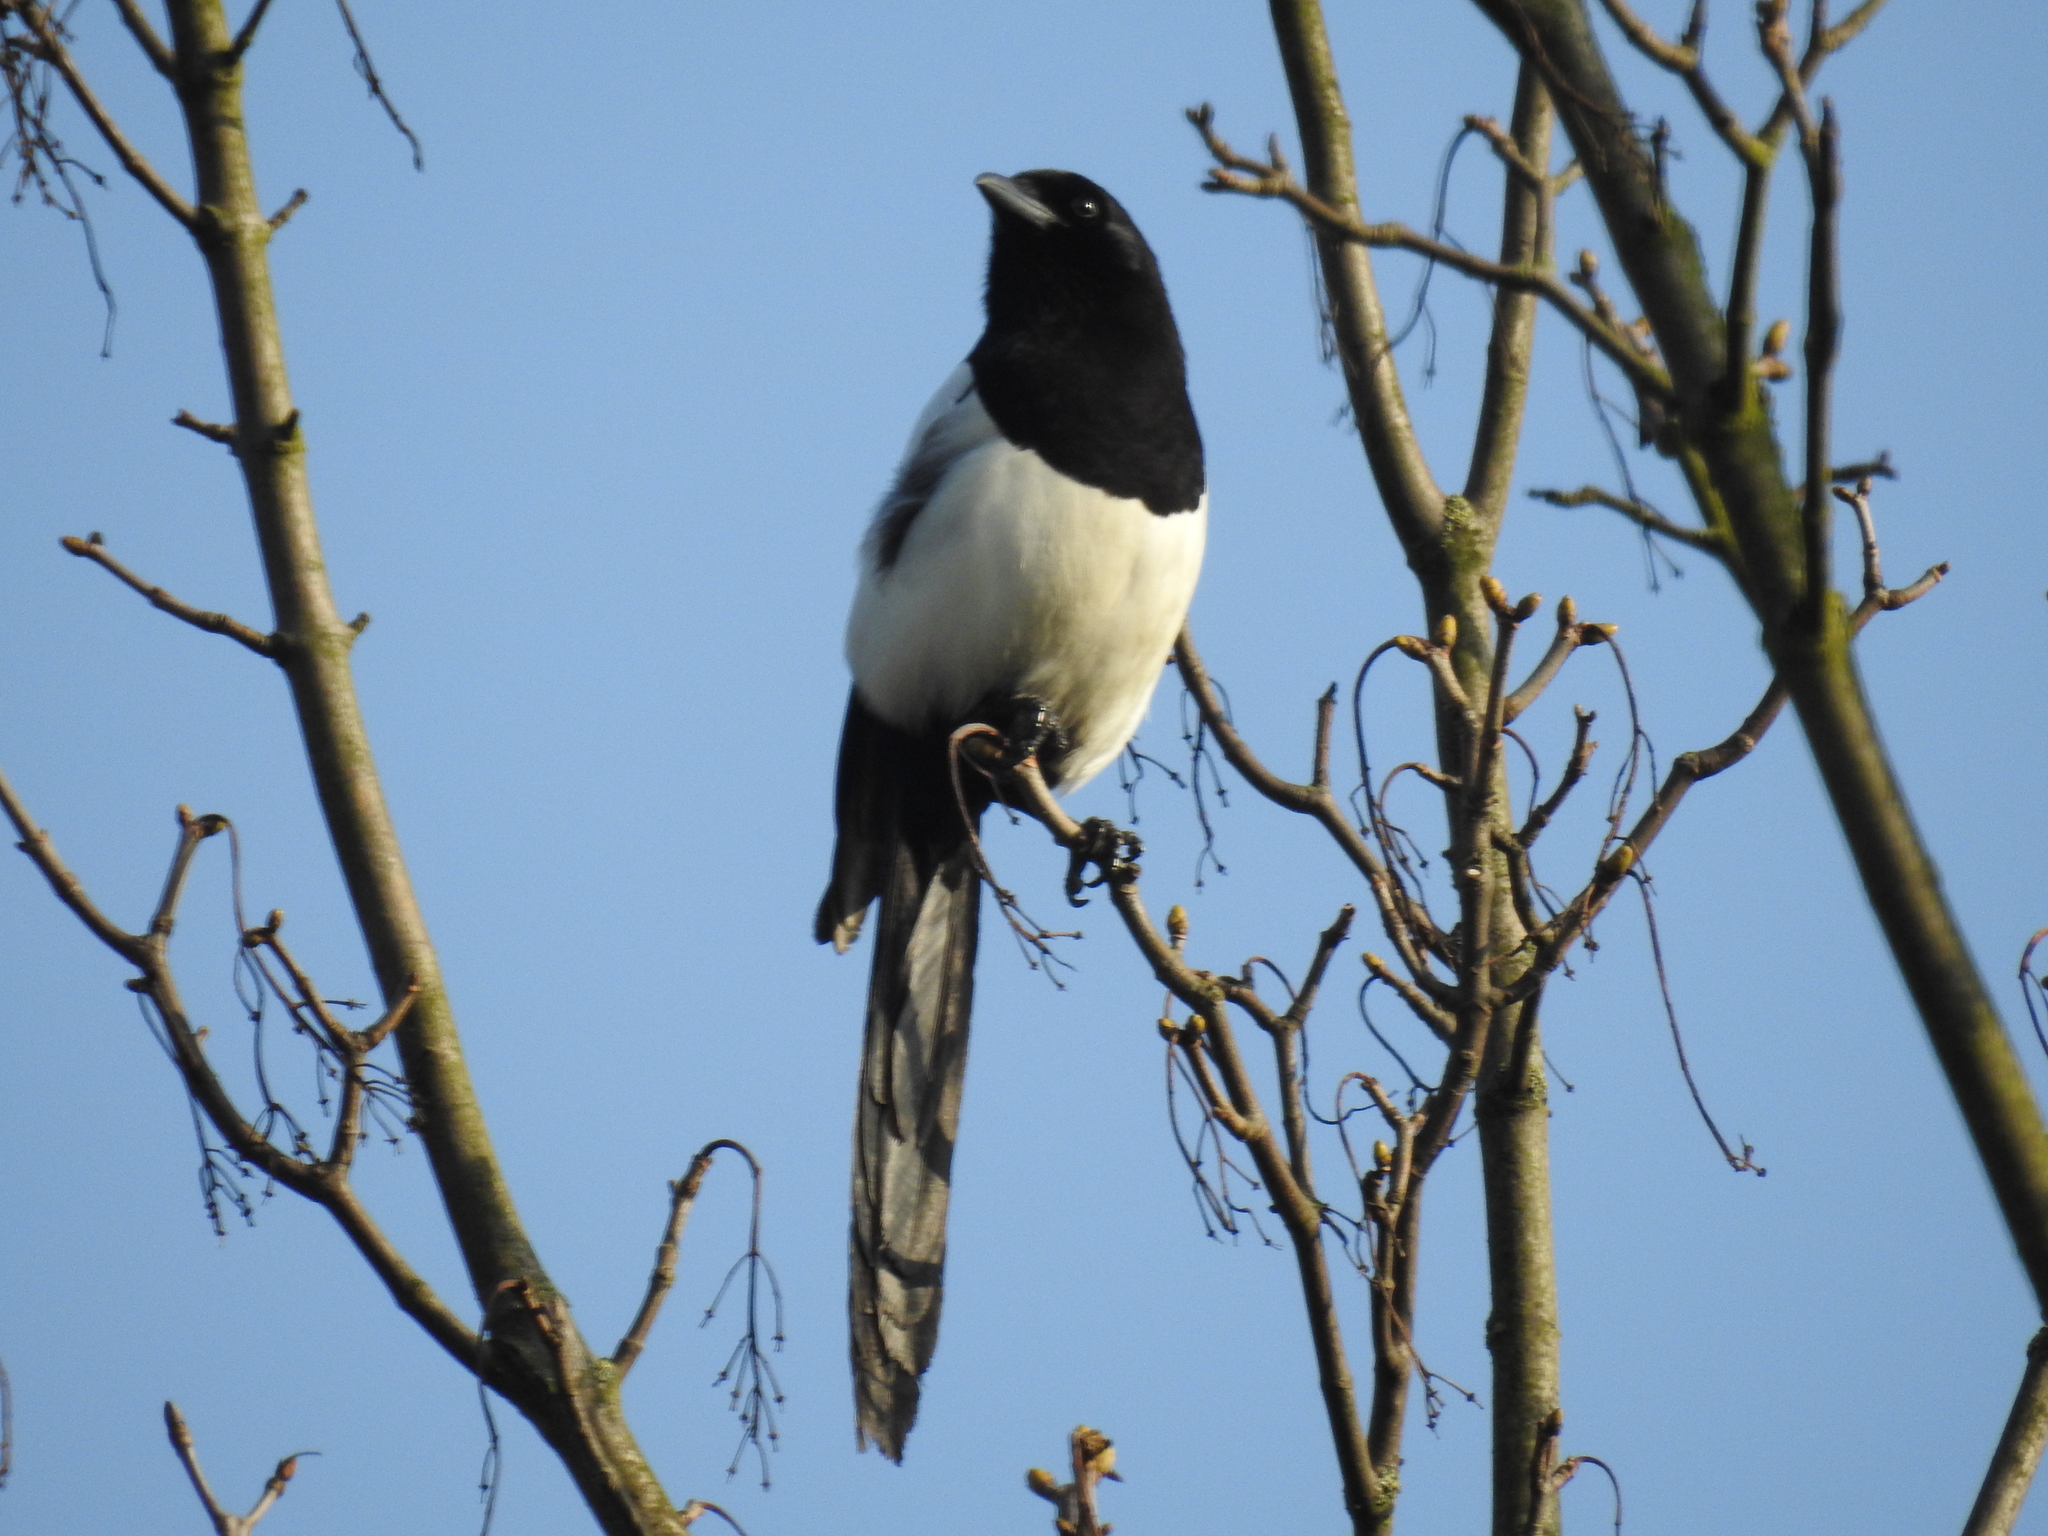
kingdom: Animalia
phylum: Chordata
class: Aves
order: Passeriformes
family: Corvidae
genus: Pica
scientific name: Pica pica
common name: Eurasian magpie
